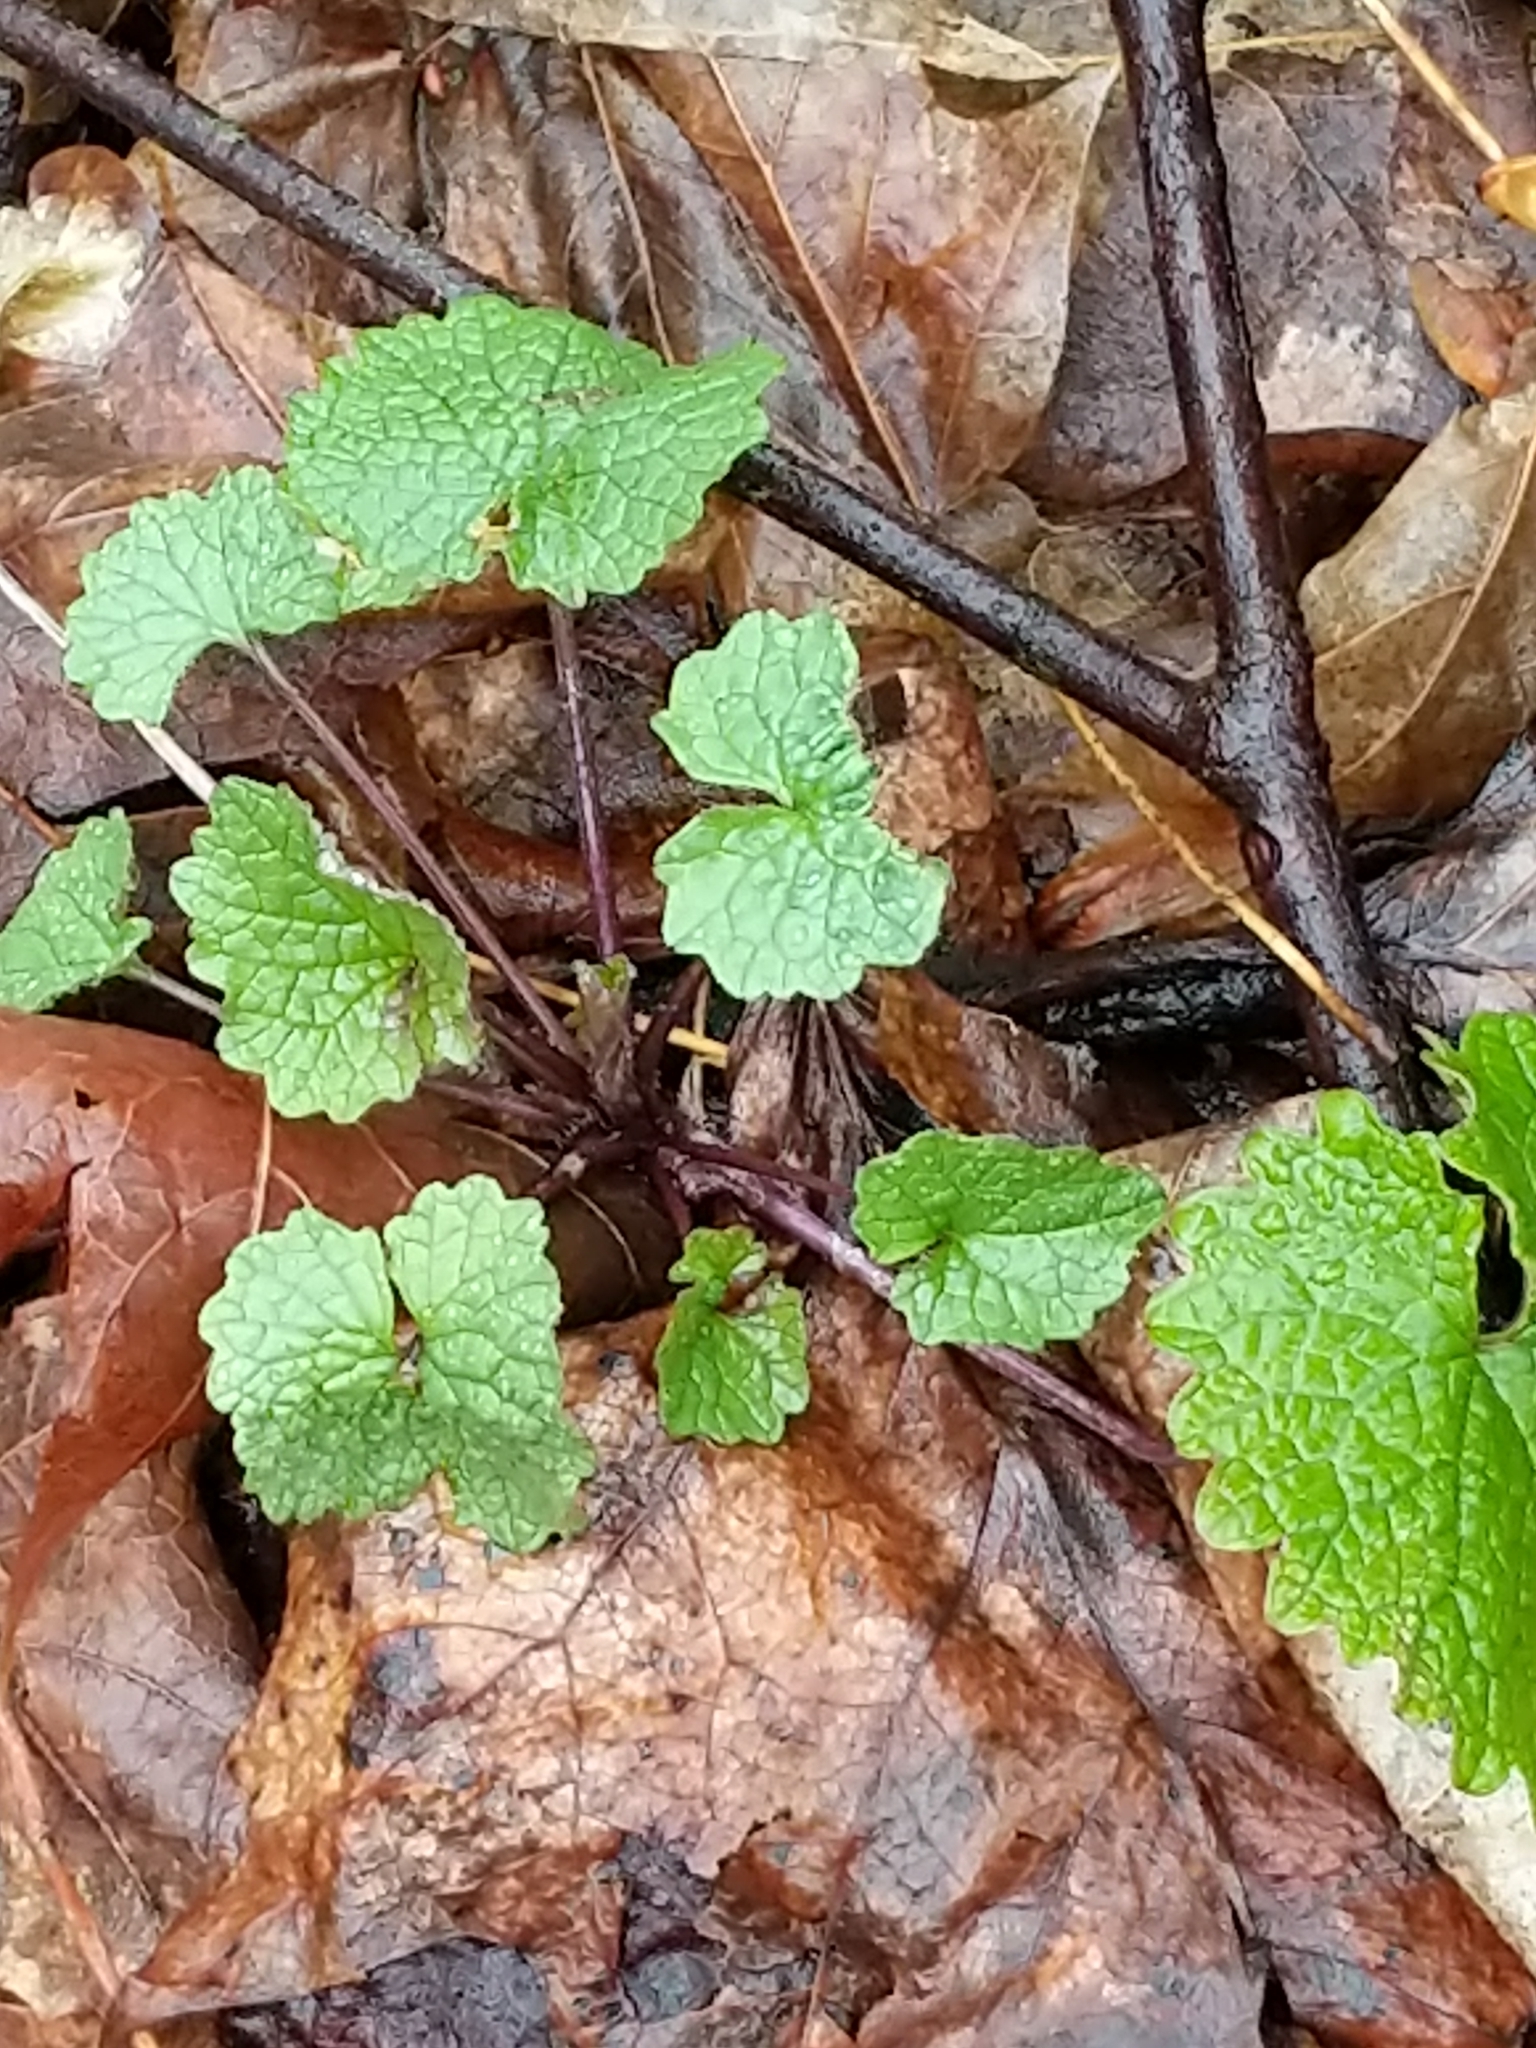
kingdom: Plantae
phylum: Tracheophyta
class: Magnoliopsida
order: Brassicales
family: Brassicaceae
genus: Alliaria
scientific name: Alliaria petiolata
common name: Garlic mustard
